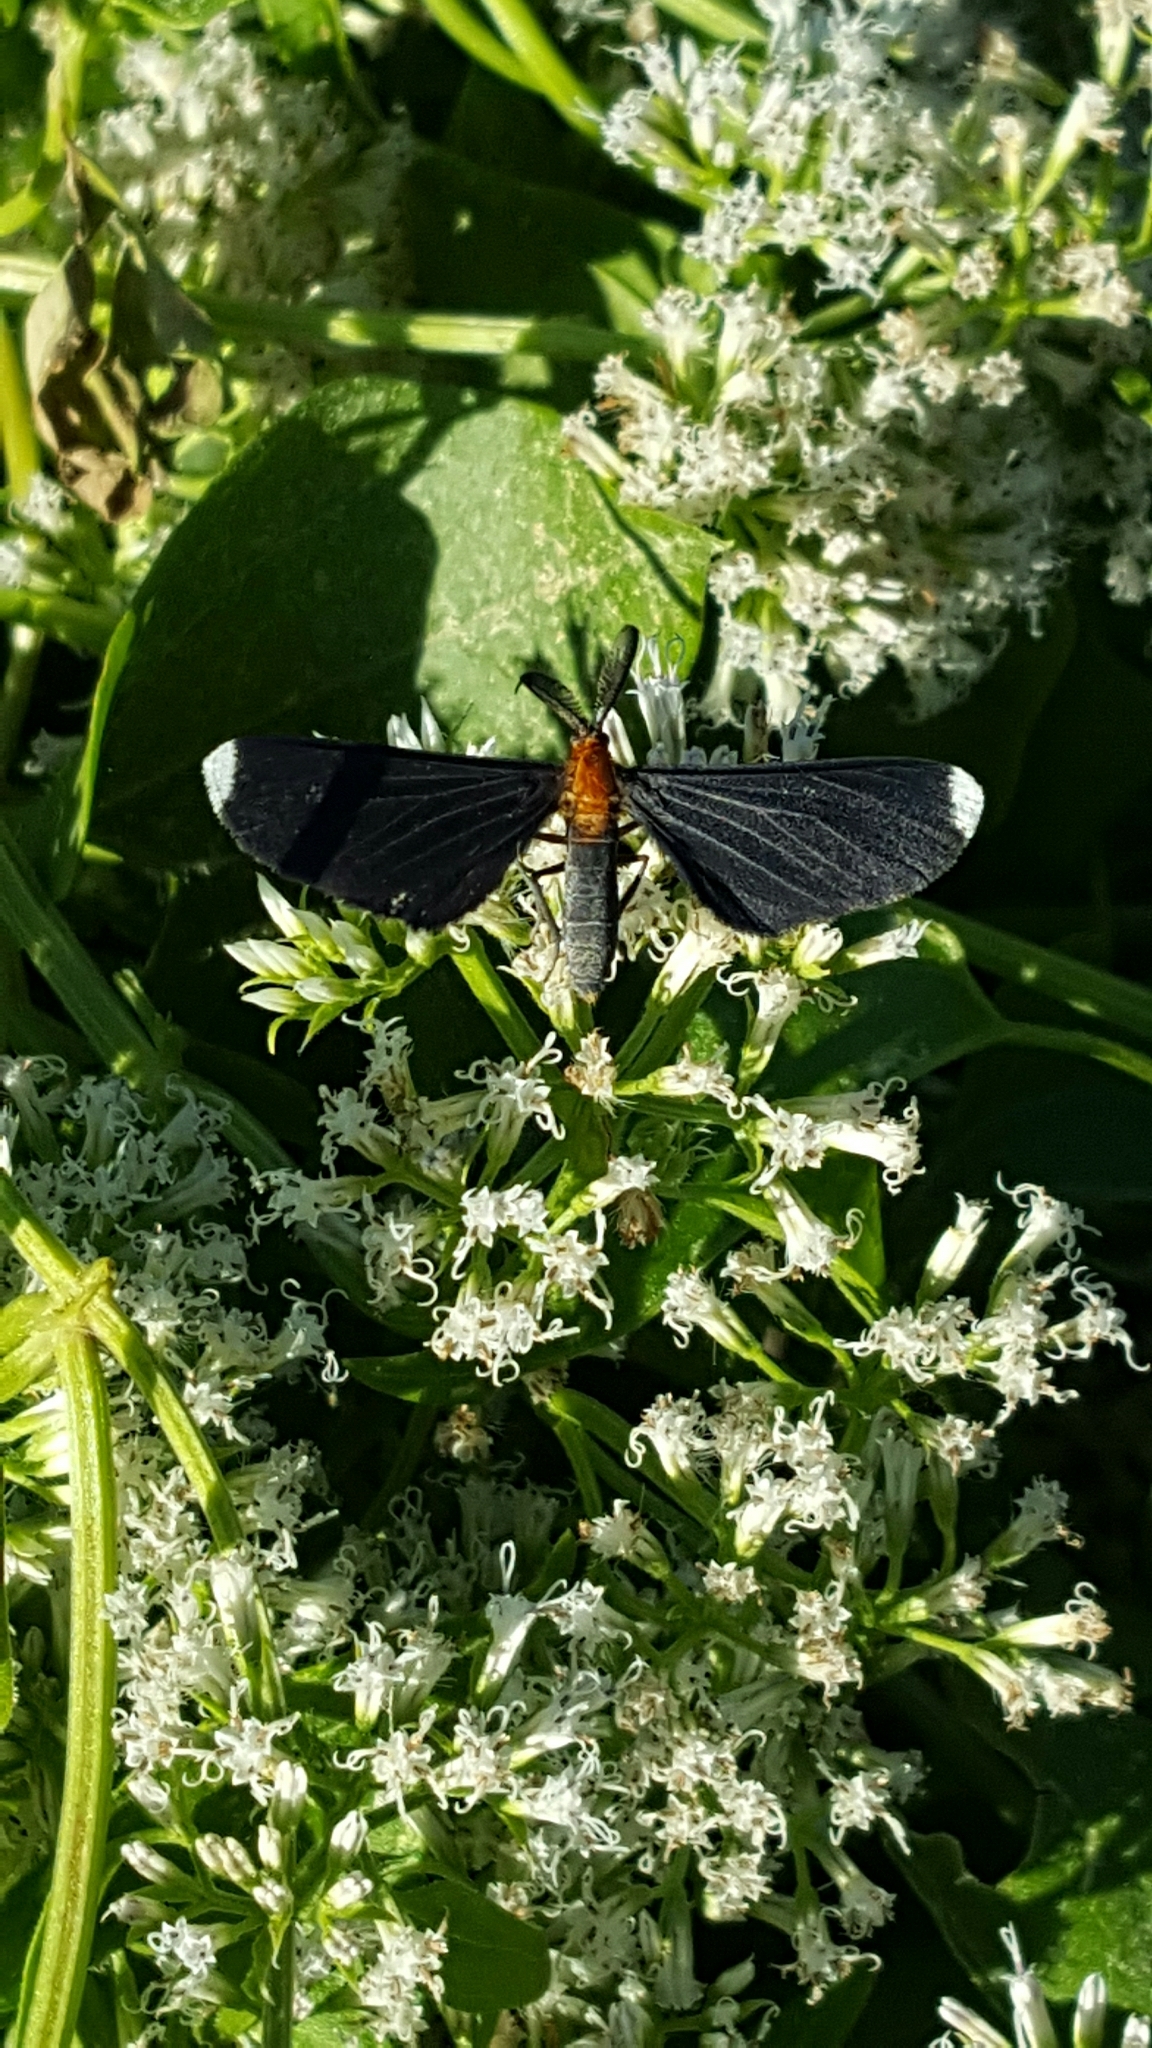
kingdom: Animalia
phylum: Arthropoda
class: Insecta
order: Lepidoptera
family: Geometridae
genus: Melanchroia
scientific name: Melanchroia chephise
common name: White-tipped black
